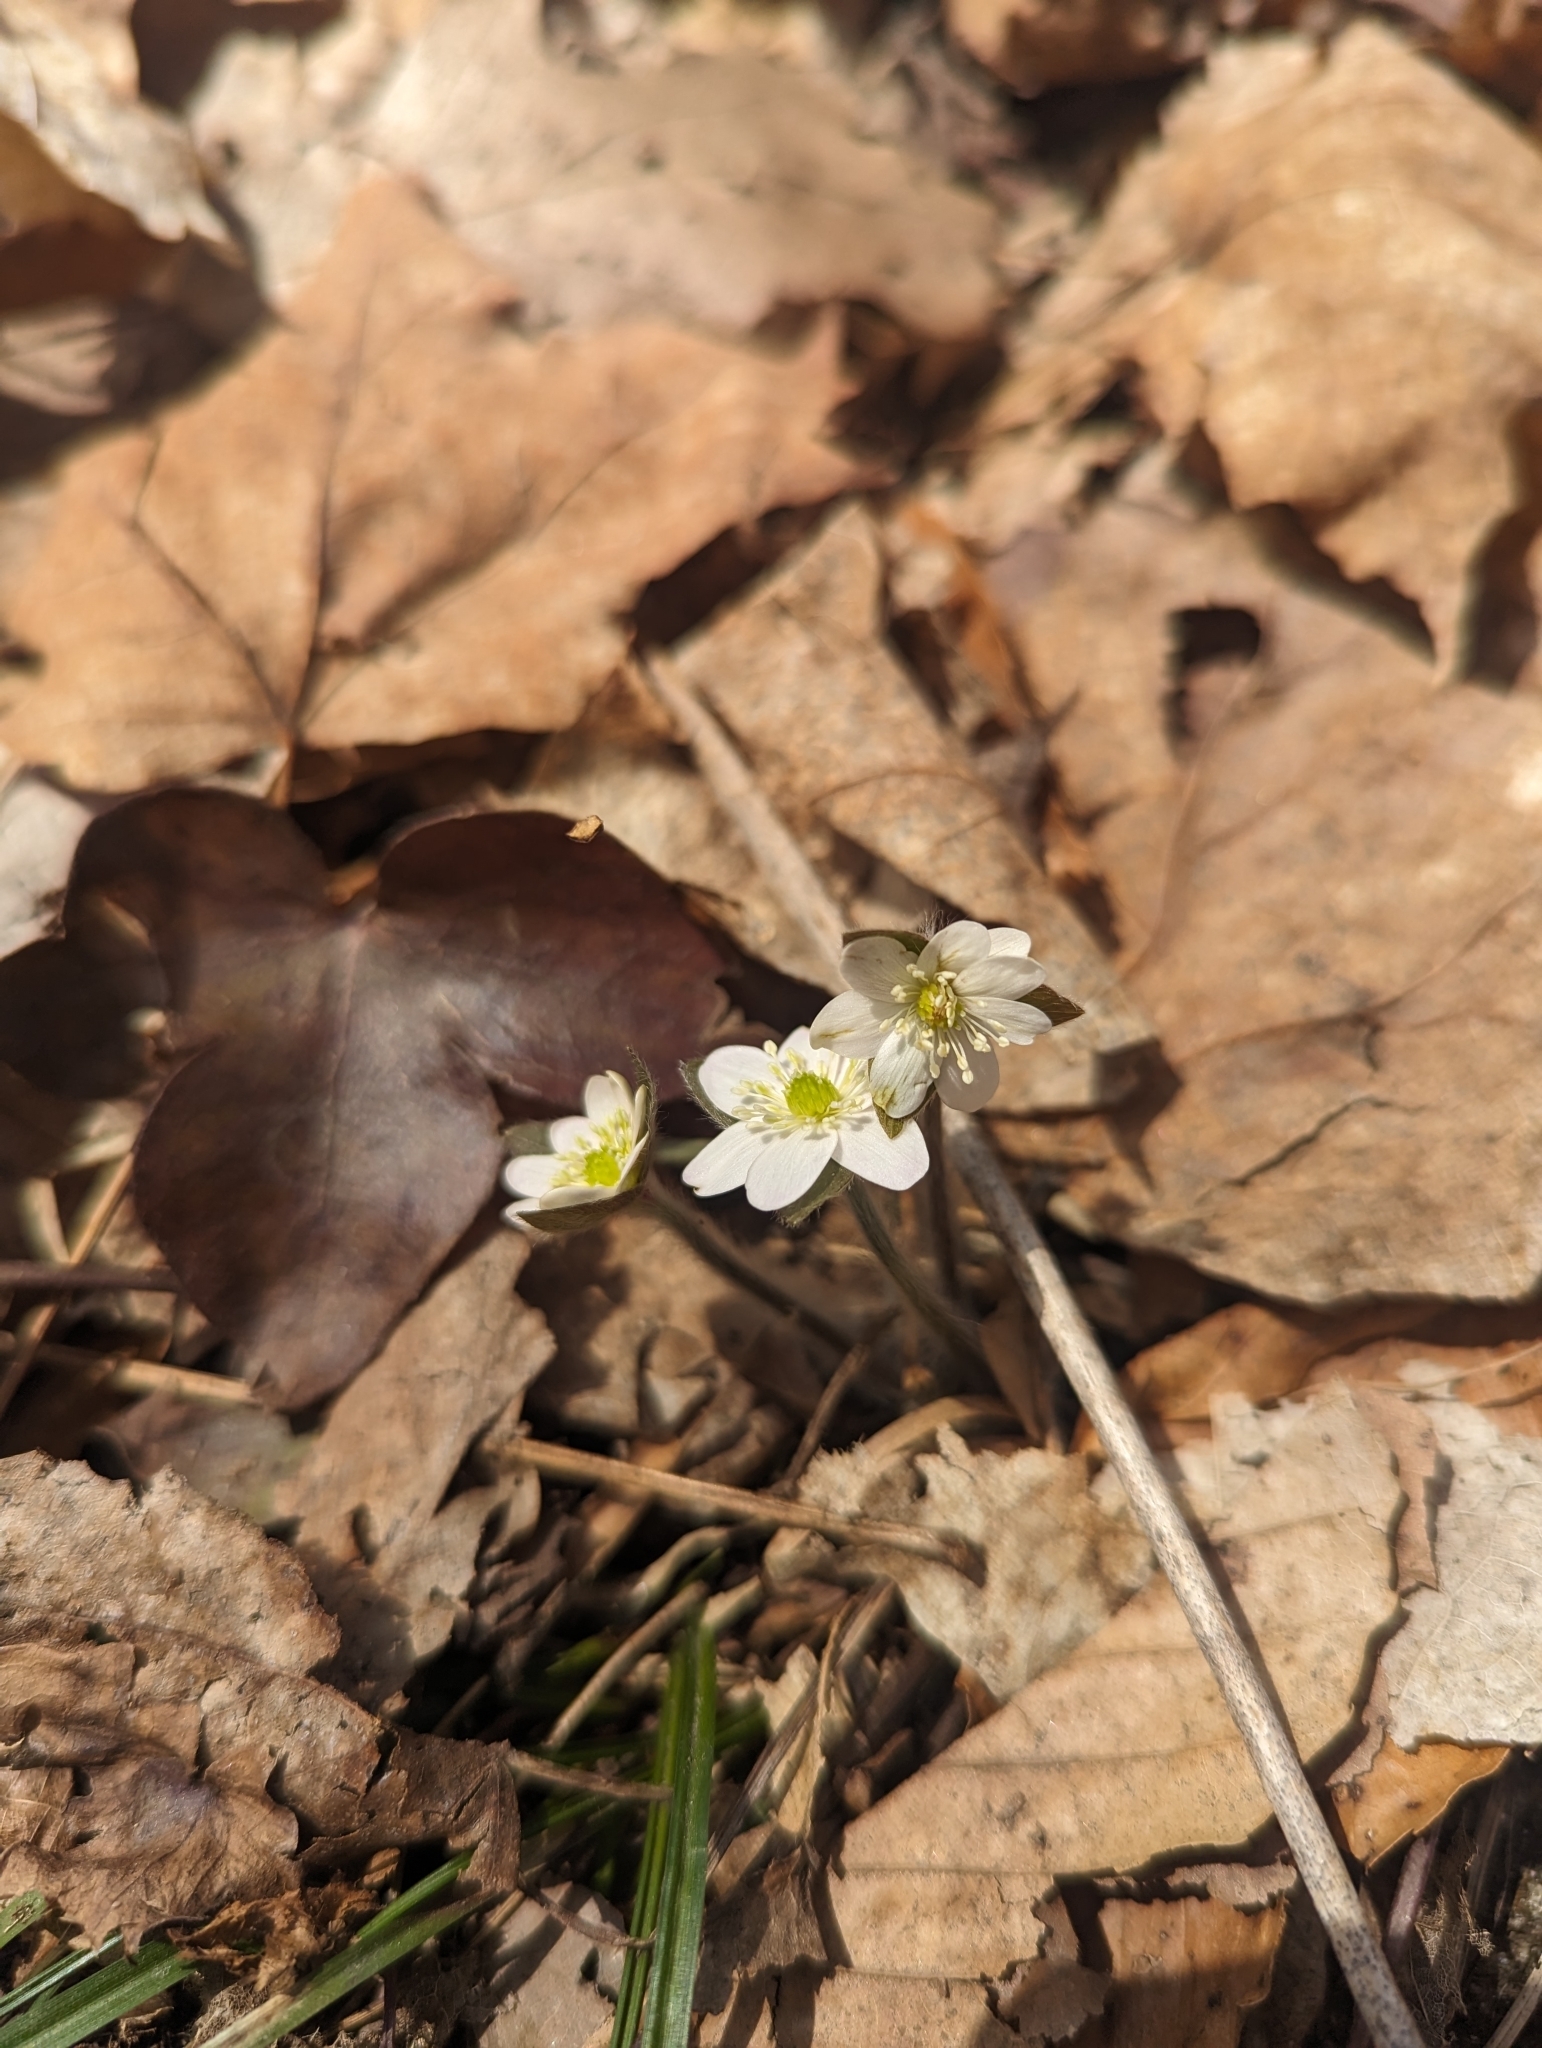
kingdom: Plantae
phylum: Tracheophyta
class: Magnoliopsida
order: Ranunculales
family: Ranunculaceae
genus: Hepatica
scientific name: Hepatica acutiloba
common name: Sharp-lobed hepatica
